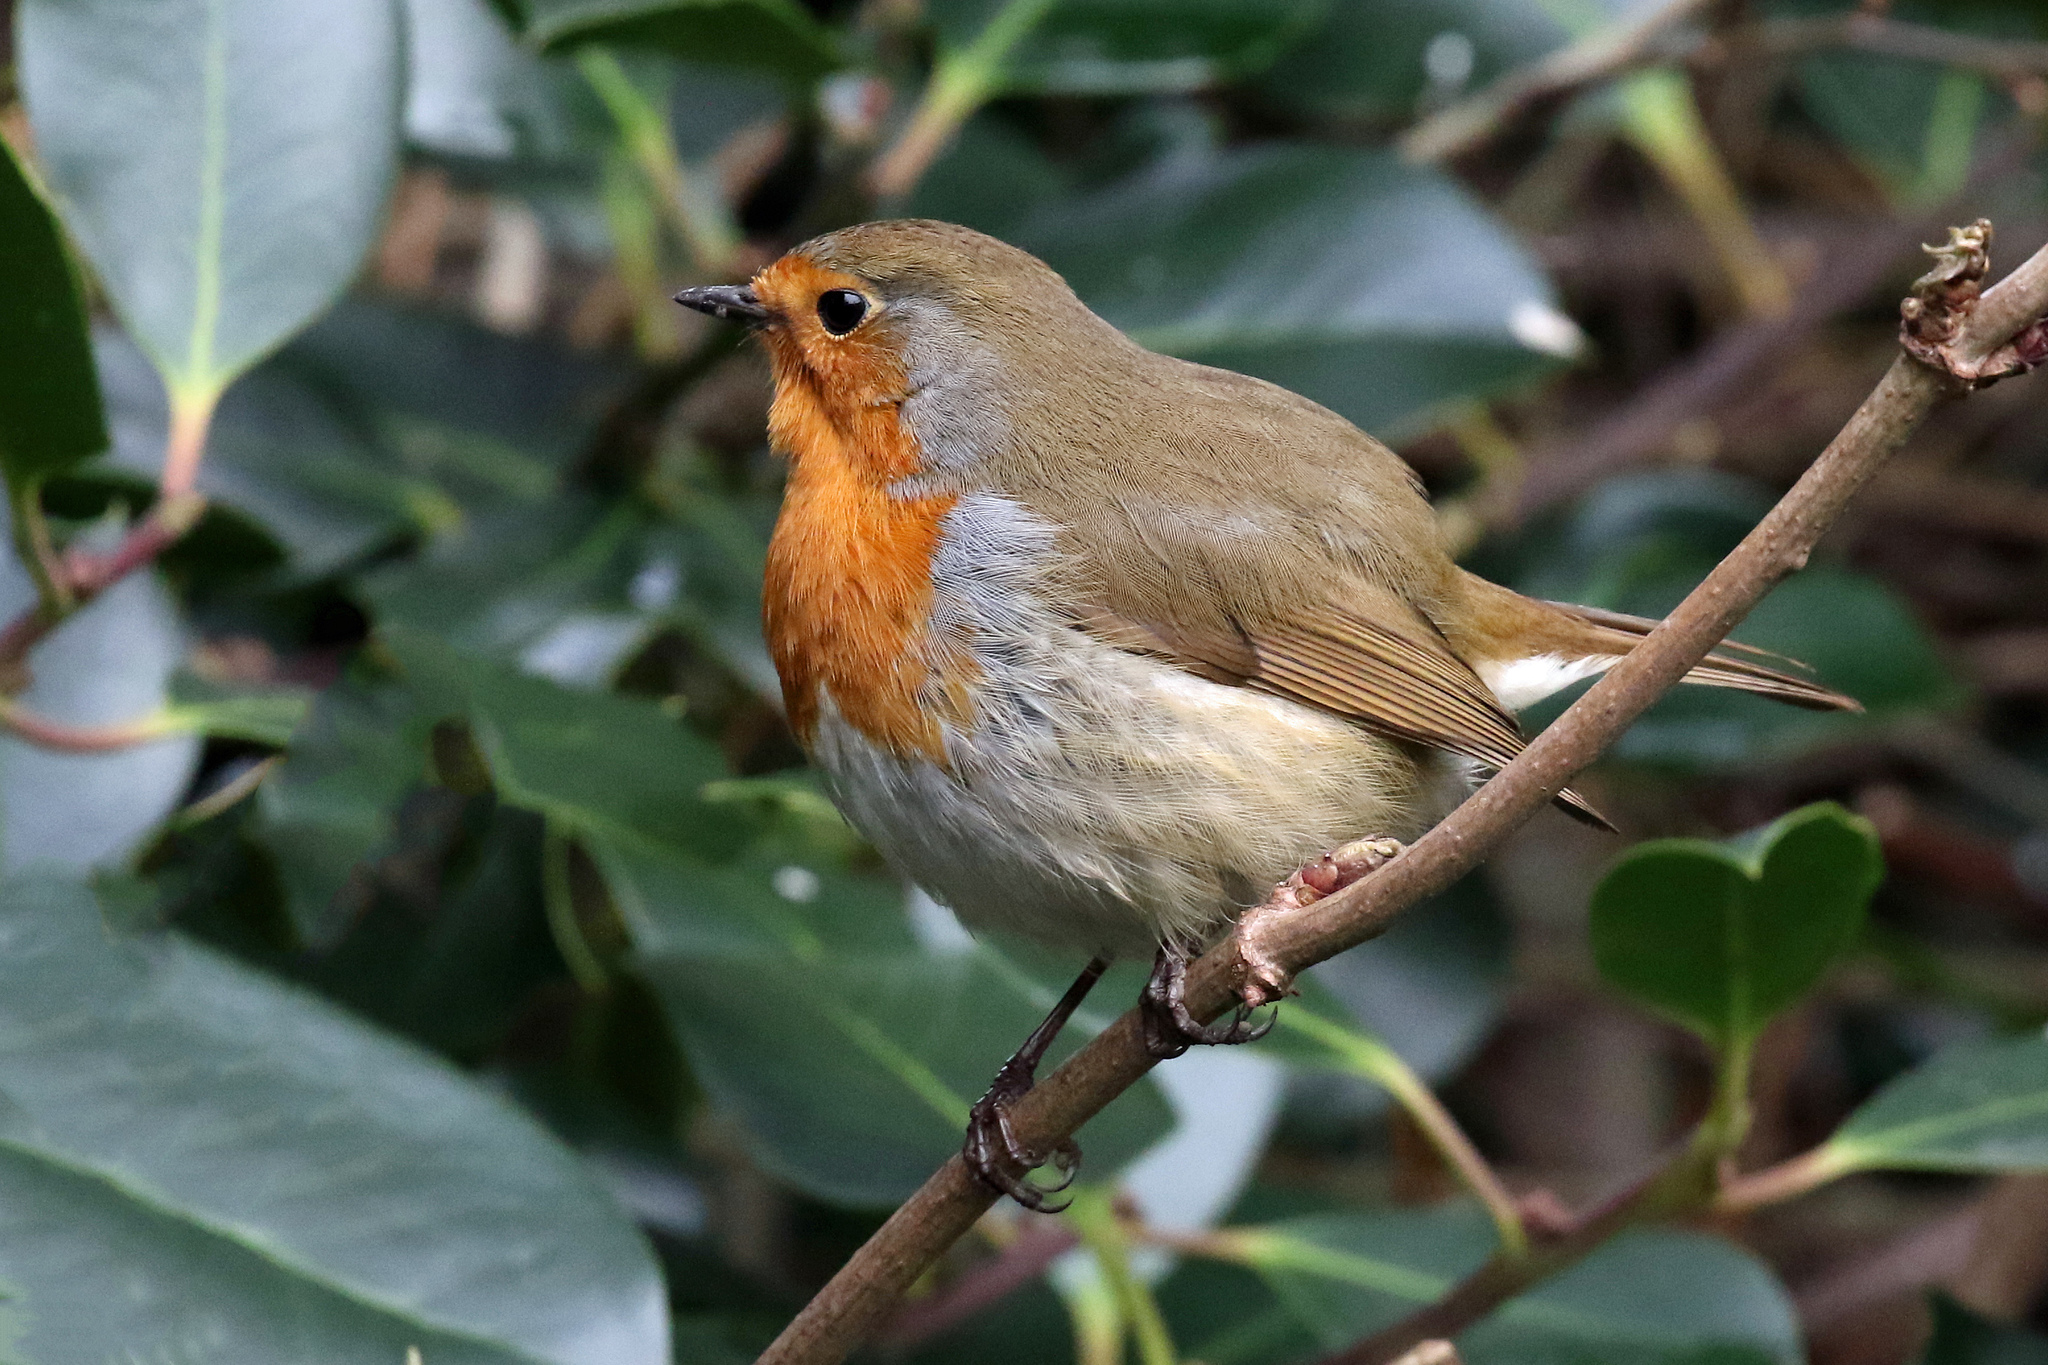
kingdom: Animalia
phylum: Chordata
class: Aves
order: Passeriformes
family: Muscicapidae
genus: Erithacus
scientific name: Erithacus rubecula
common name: European robin
